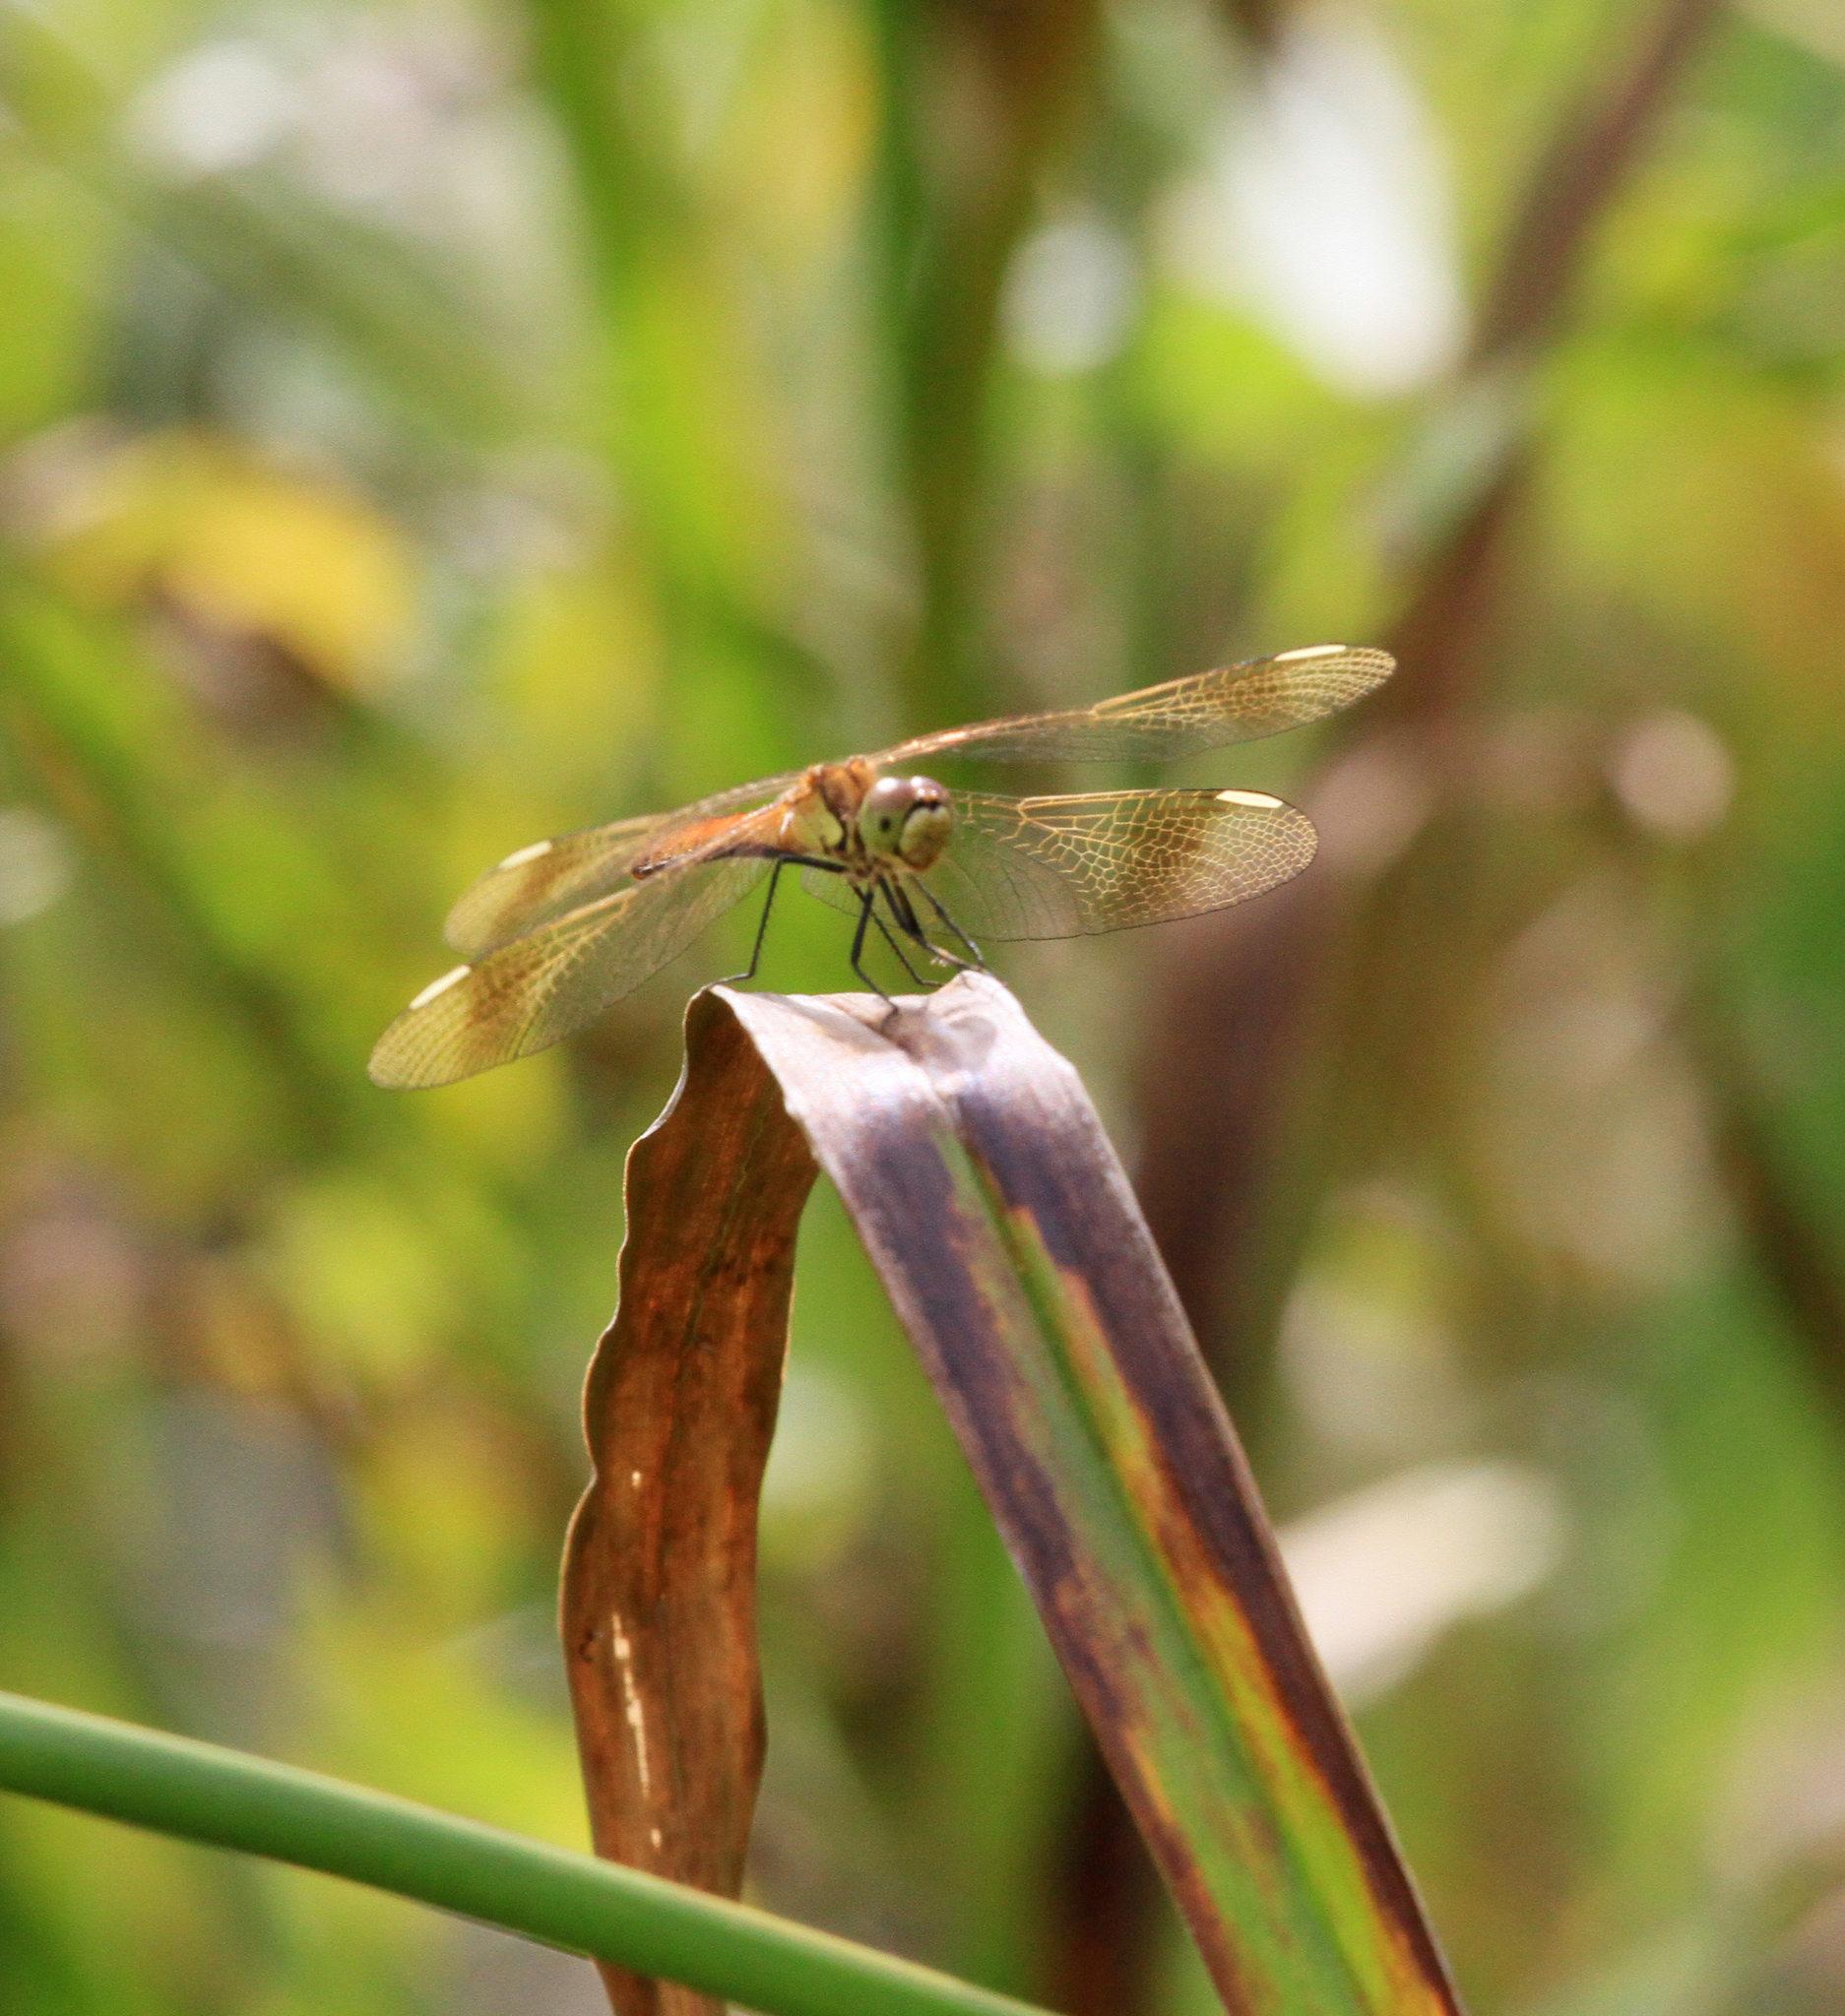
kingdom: Animalia
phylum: Arthropoda
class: Insecta
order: Odonata
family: Libellulidae
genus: Sympetrum
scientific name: Sympetrum pedemontanum
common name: Banded darter
